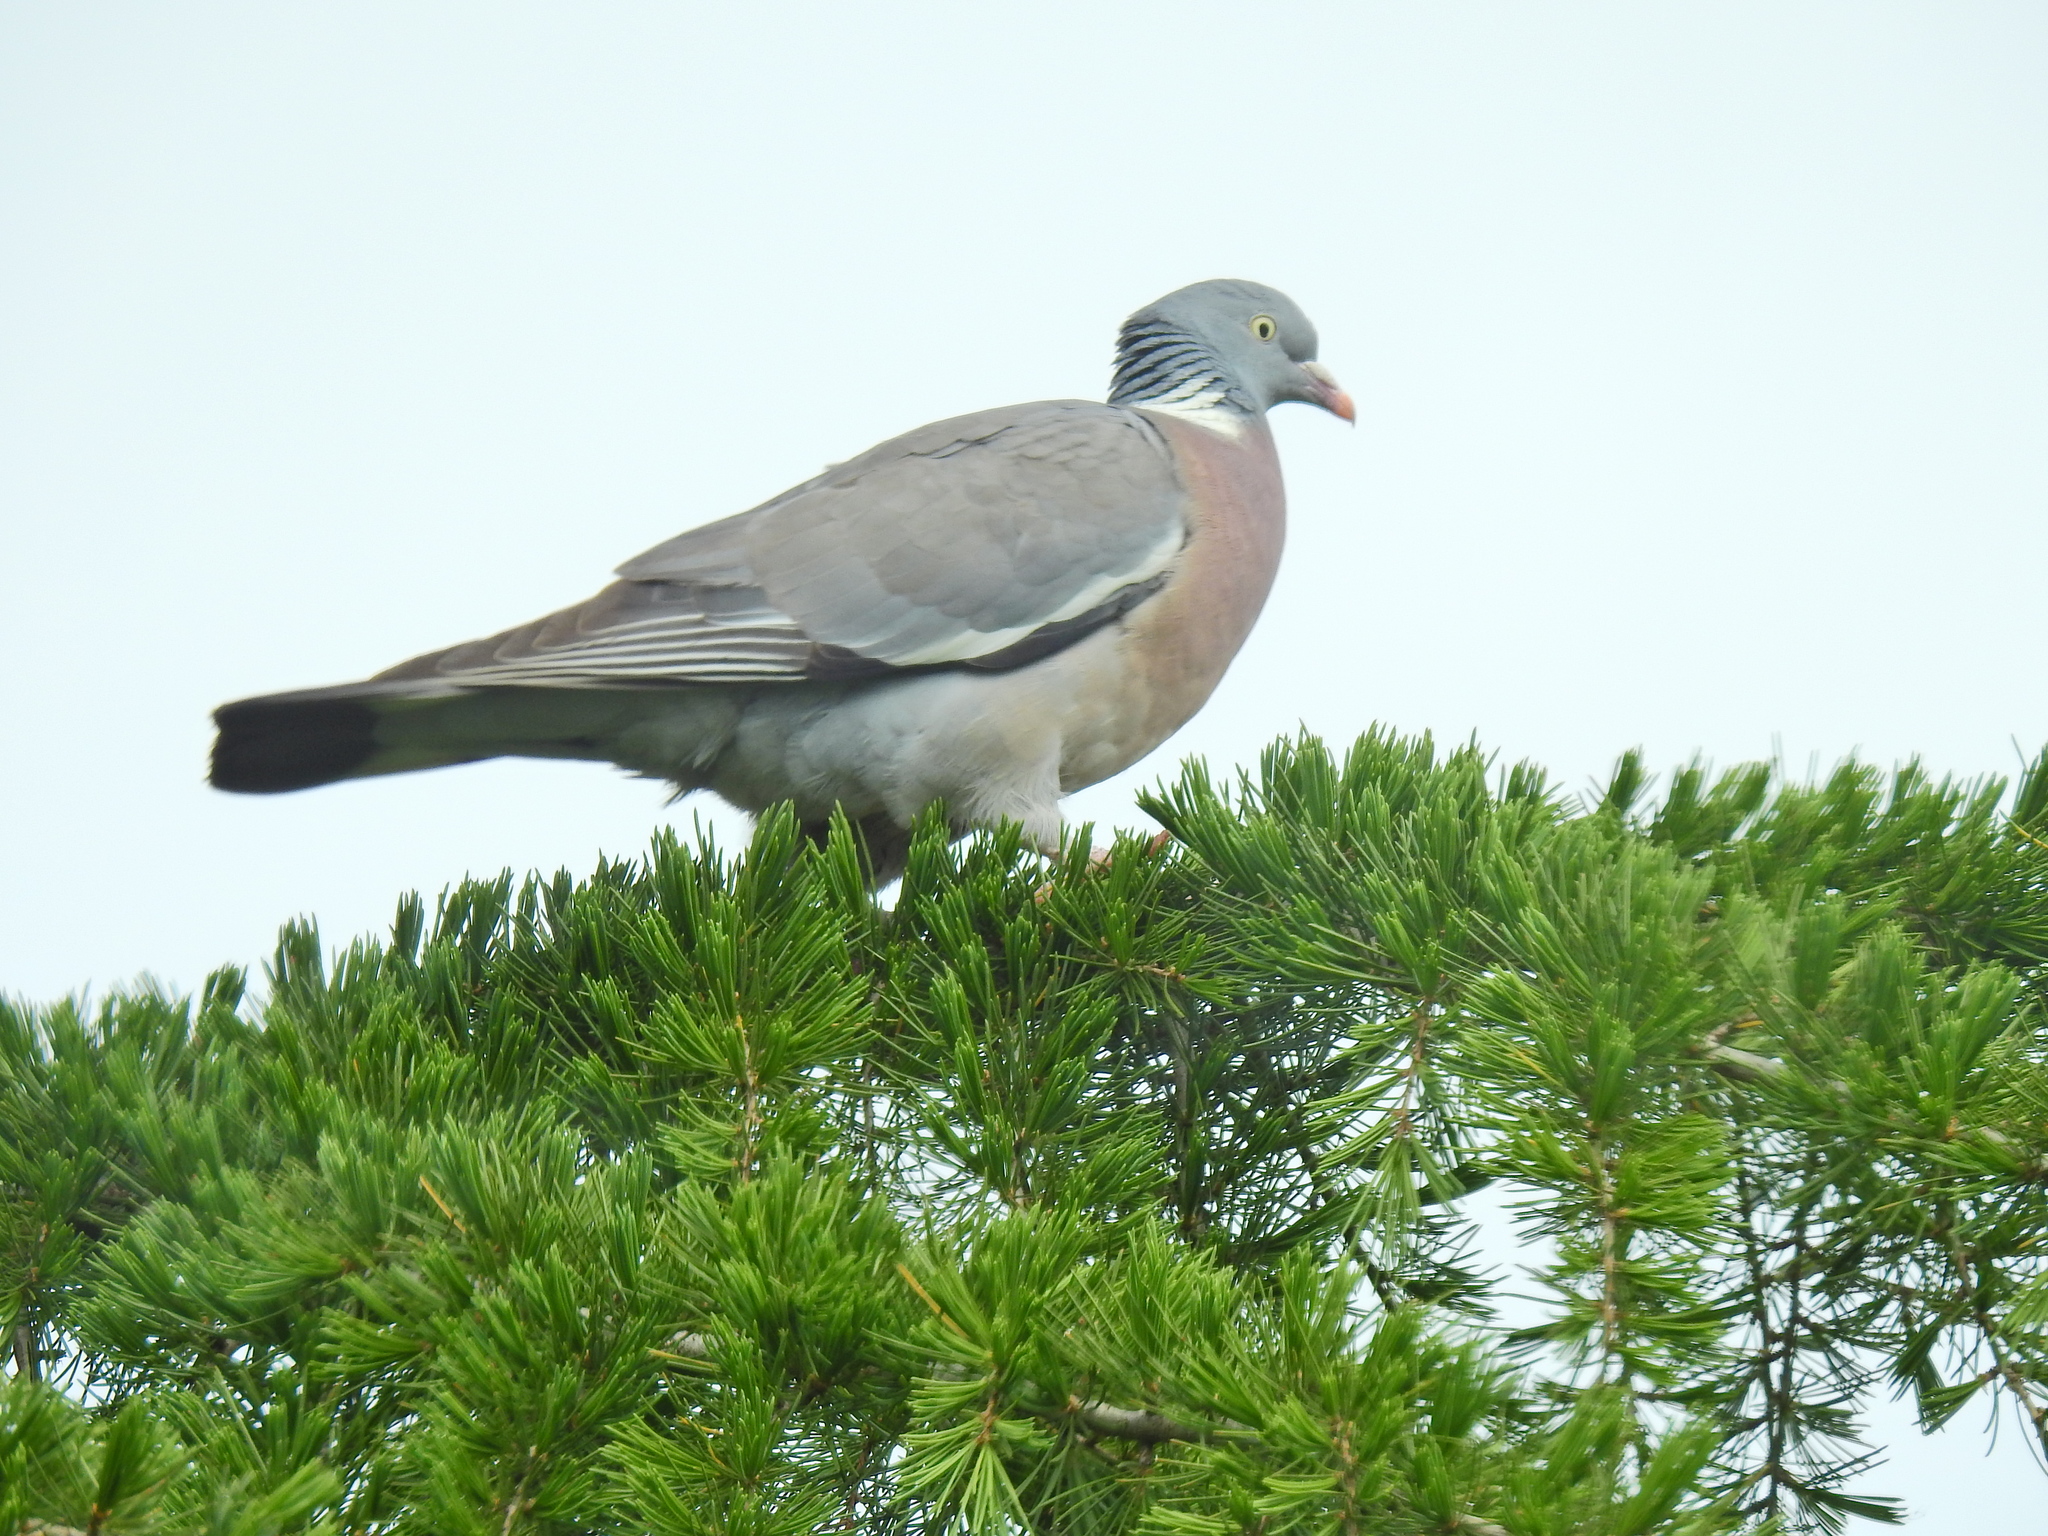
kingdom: Animalia
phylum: Chordata
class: Aves
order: Columbiformes
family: Columbidae
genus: Columba
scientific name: Columba palumbus
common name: Common wood pigeon
